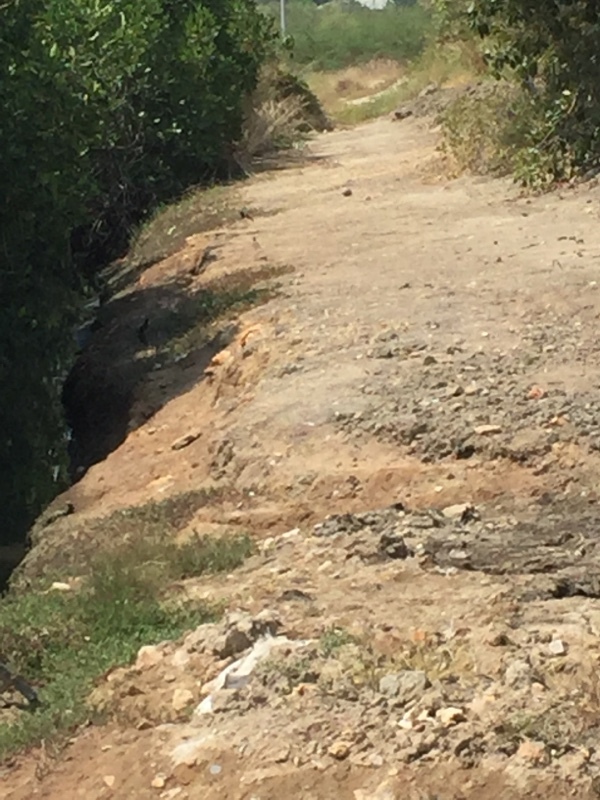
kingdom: Animalia
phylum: Chordata
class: Aves
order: Charadriiformes
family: Charadriidae
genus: Vanellus
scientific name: Vanellus indicus
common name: Red-wattled lapwing
